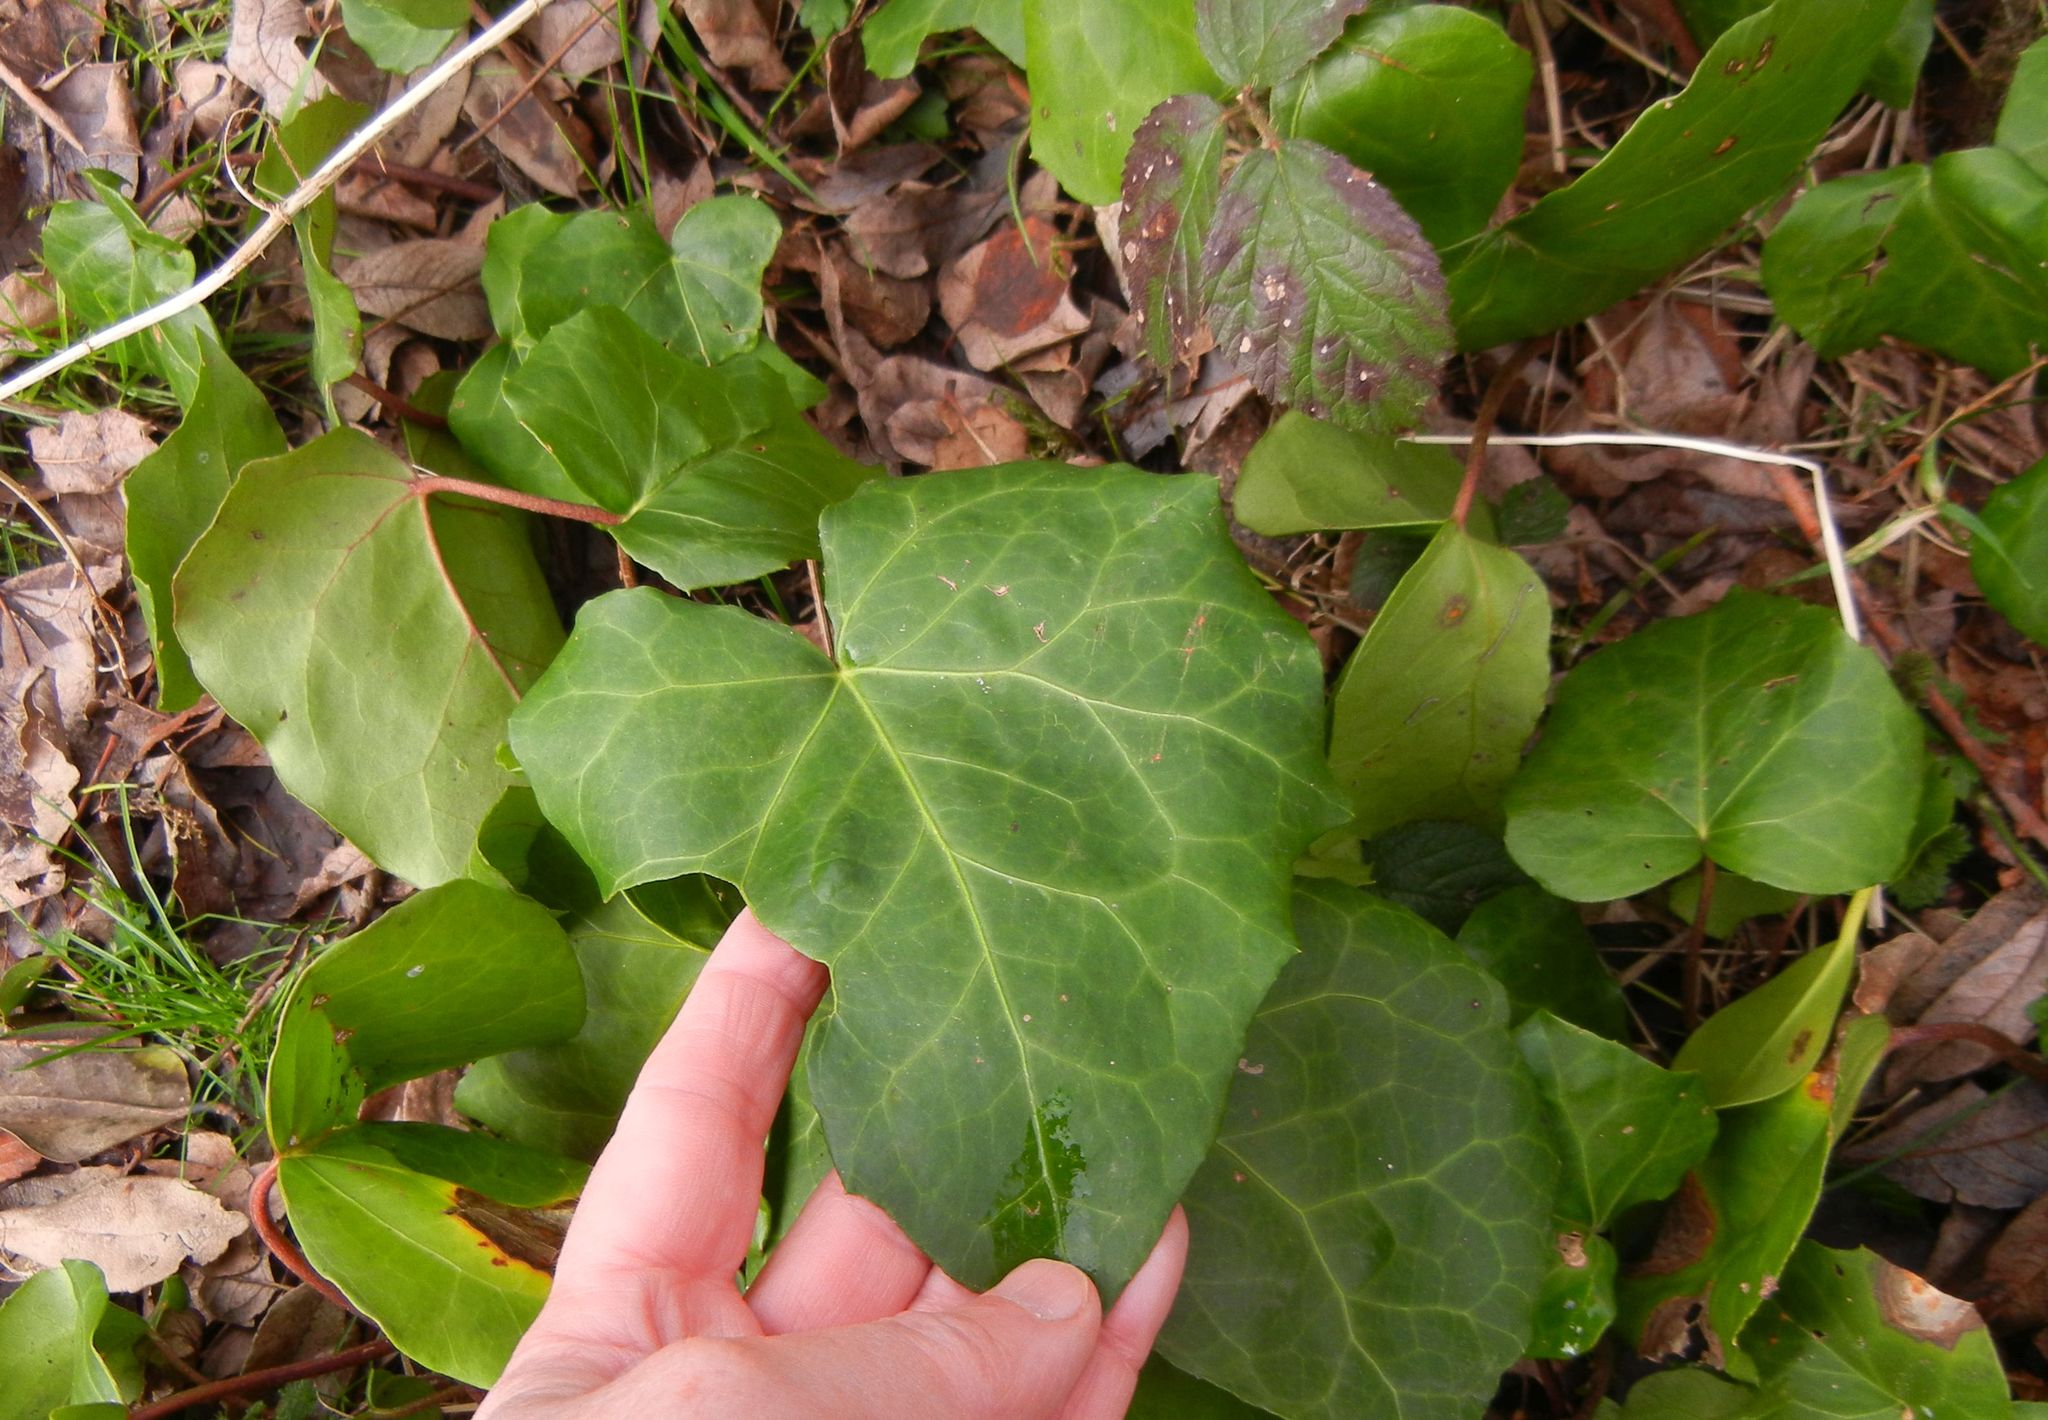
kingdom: Plantae
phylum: Tracheophyta
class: Magnoliopsida
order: Apiales
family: Araliaceae
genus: Hedera
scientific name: Hedera colchica
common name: Persian ivy
